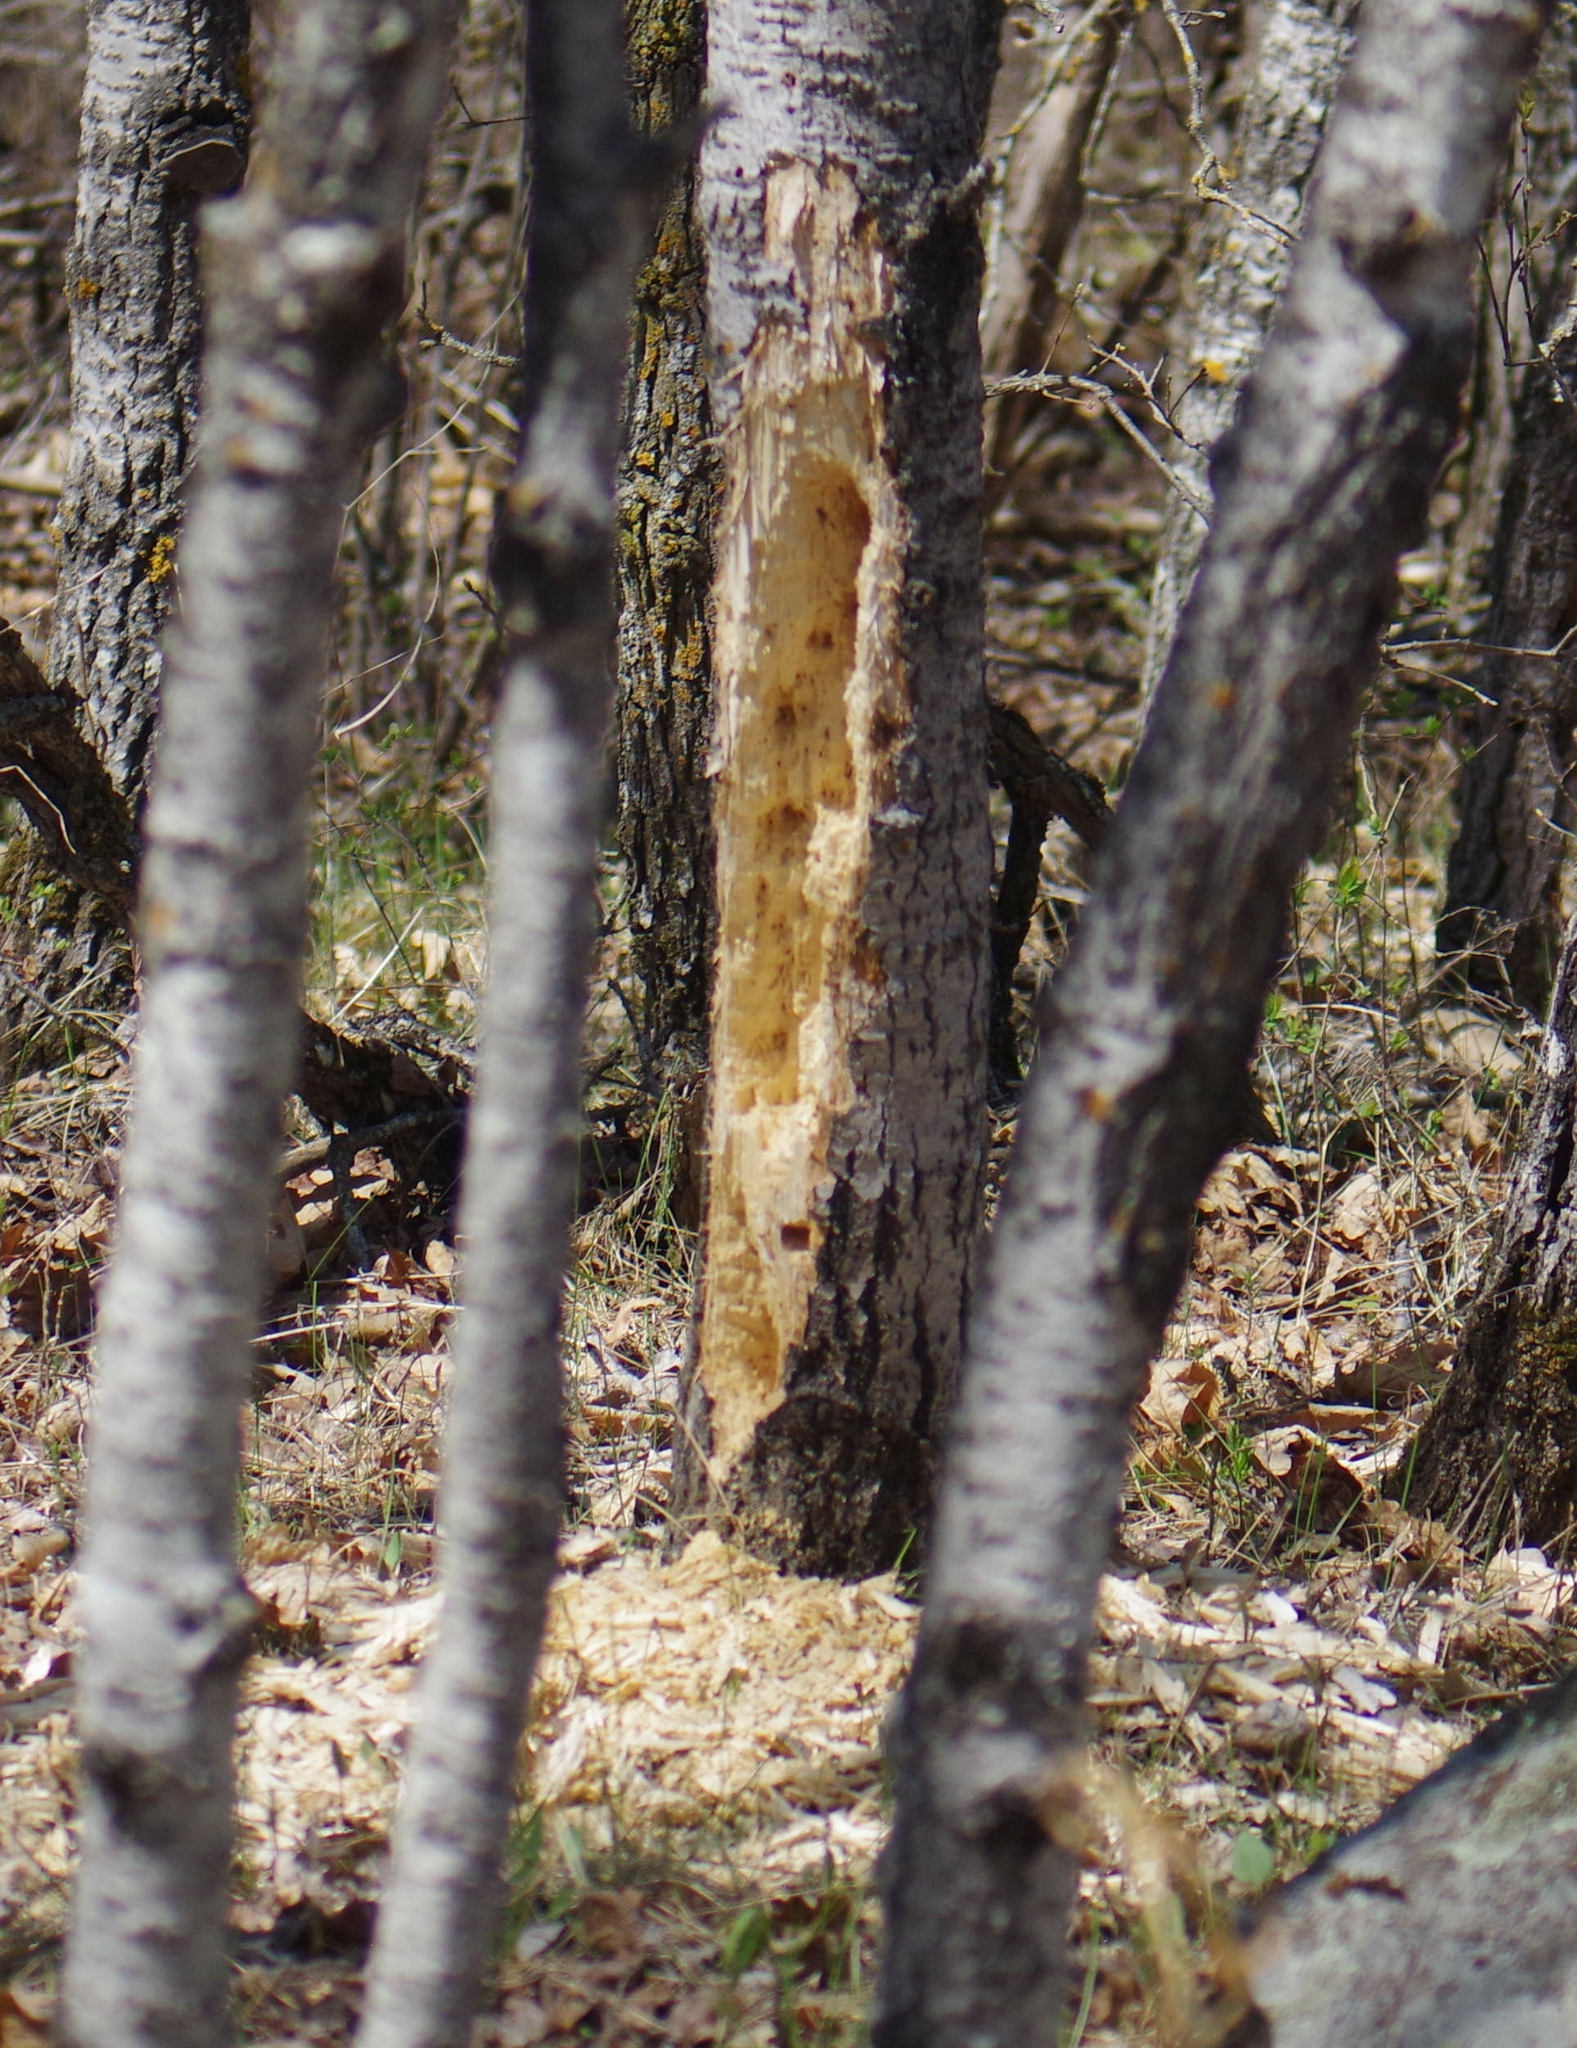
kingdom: Animalia
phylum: Chordata
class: Aves
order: Piciformes
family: Picidae
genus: Dryocopus
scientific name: Dryocopus pileatus
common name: Pileated woodpecker
